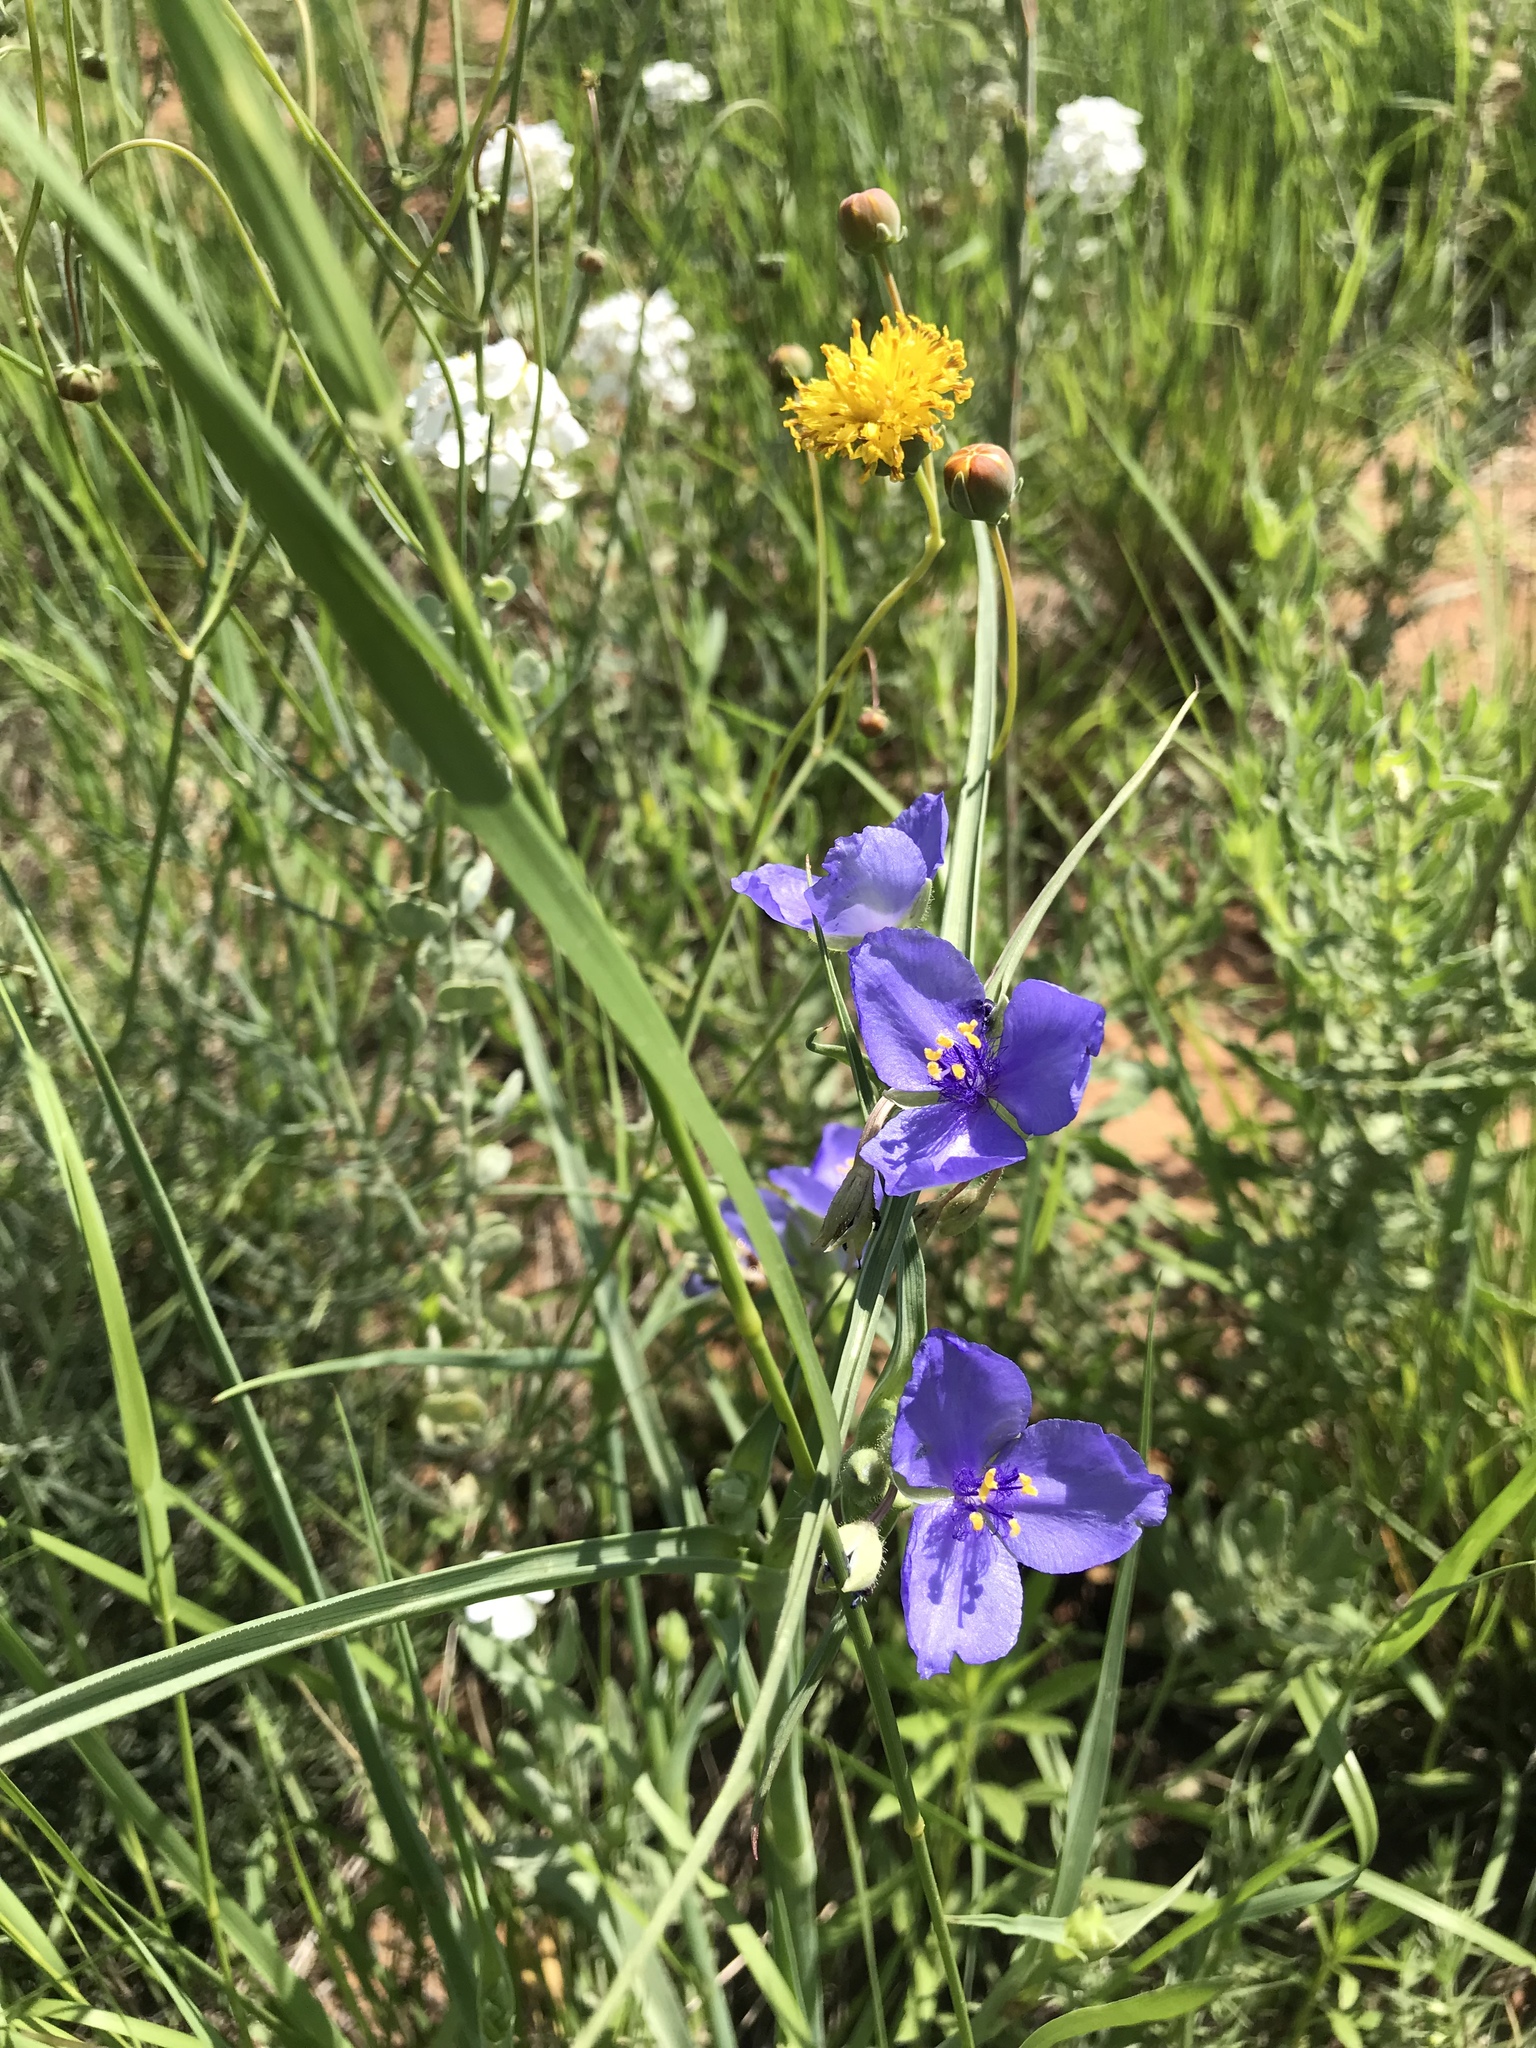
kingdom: Plantae
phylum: Tracheophyta
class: Liliopsida
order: Commelinales
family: Commelinaceae
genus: Tradescantia
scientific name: Tradescantia occidentalis
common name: Prairie spiderwort
